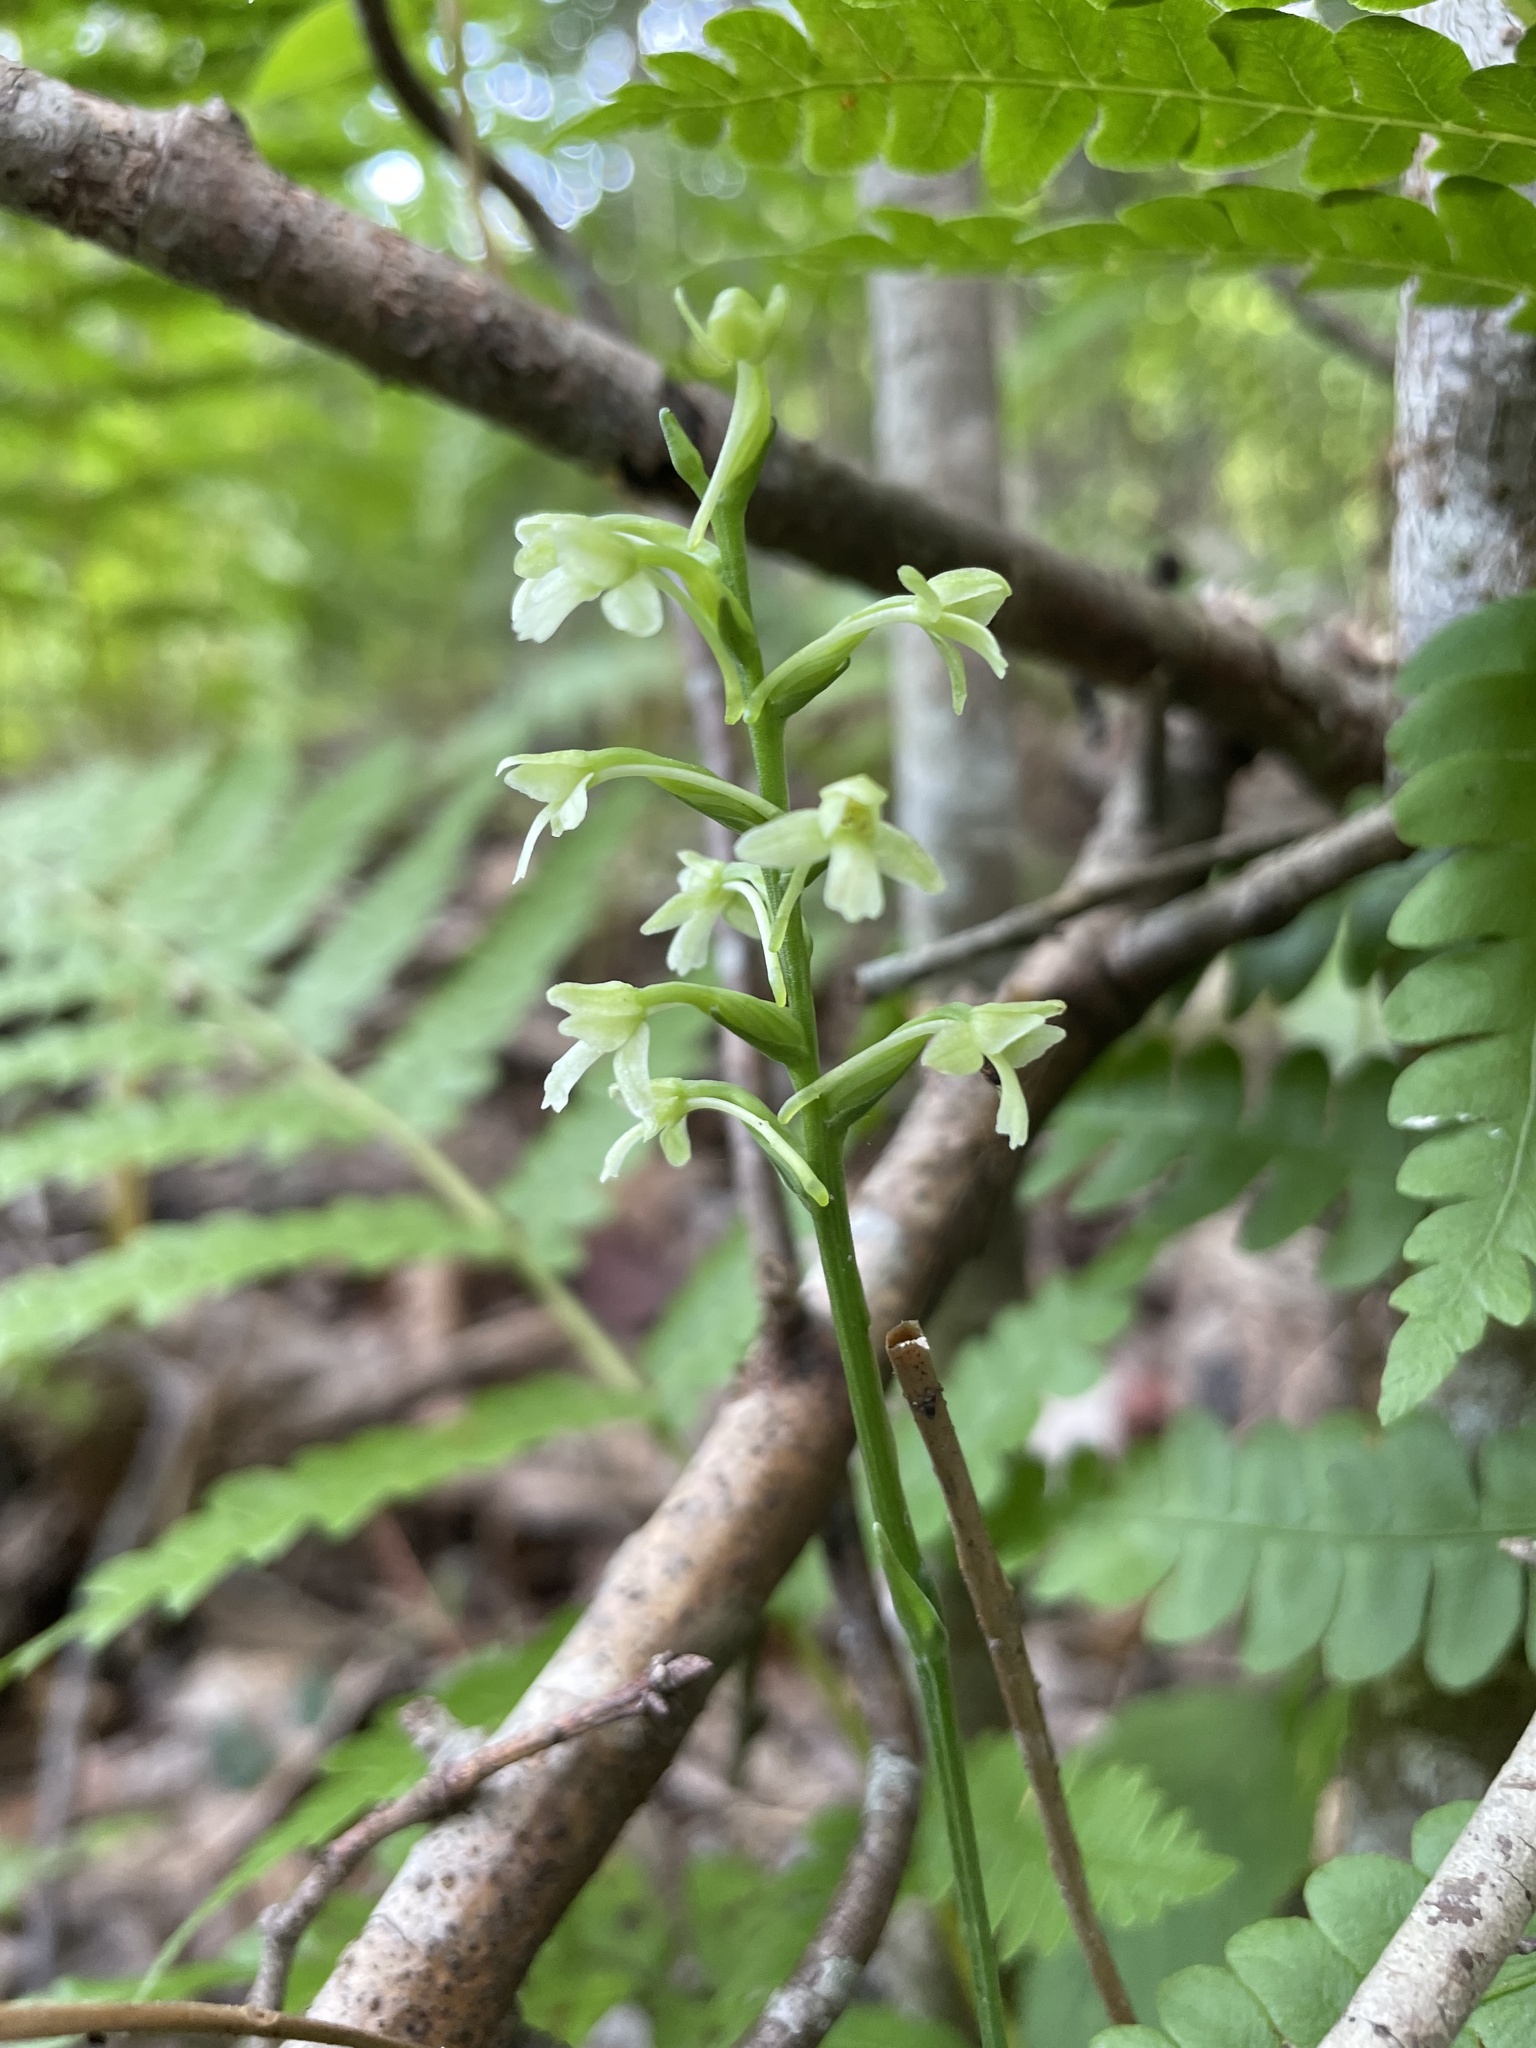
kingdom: Plantae
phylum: Tracheophyta
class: Liliopsida
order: Asparagales
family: Orchidaceae
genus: Platanthera
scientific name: Platanthera clavellata
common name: Club-spur orchid
